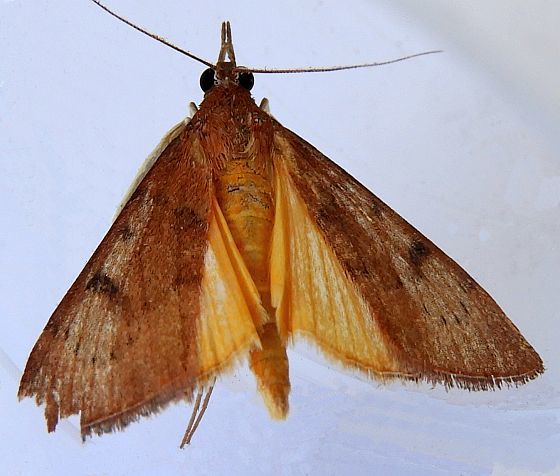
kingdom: Animalia
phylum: Arthropoda
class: Insecta
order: Lepidoptera
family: Crambidae
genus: Uresiphita
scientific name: Uresiphita reversalis
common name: Genista broom moth
